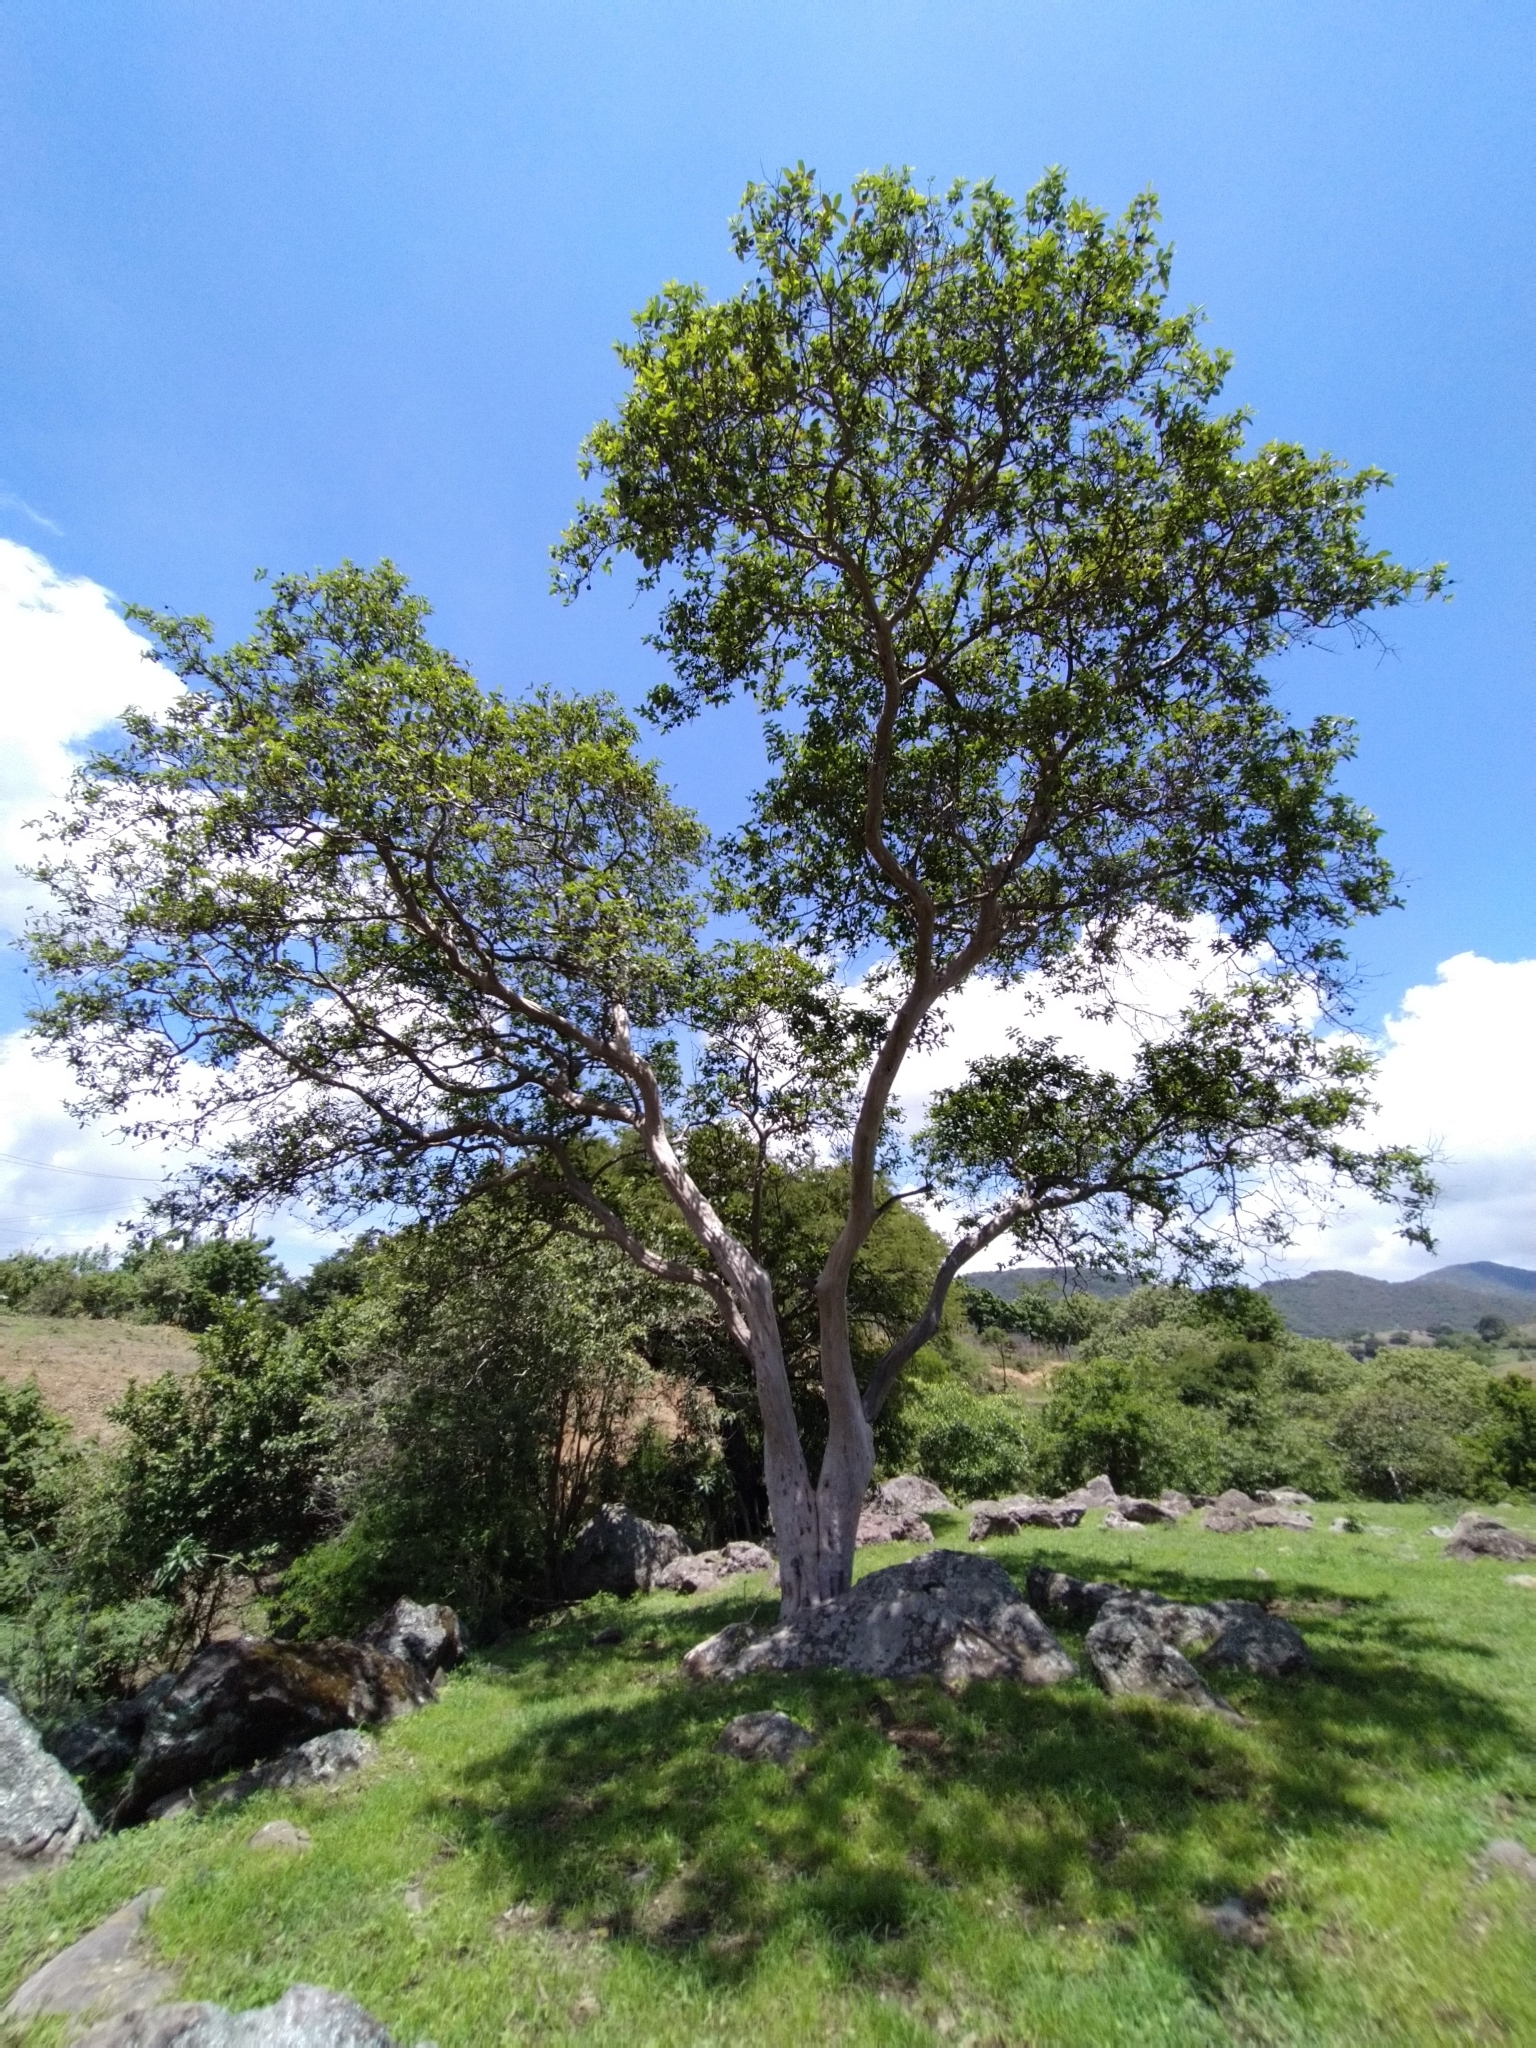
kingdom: Plantae
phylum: Tracheophyta
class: Magnoliopsida
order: Myrtales
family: Myrtaceae
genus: Psidium
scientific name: Psidium guajava
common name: Guava
